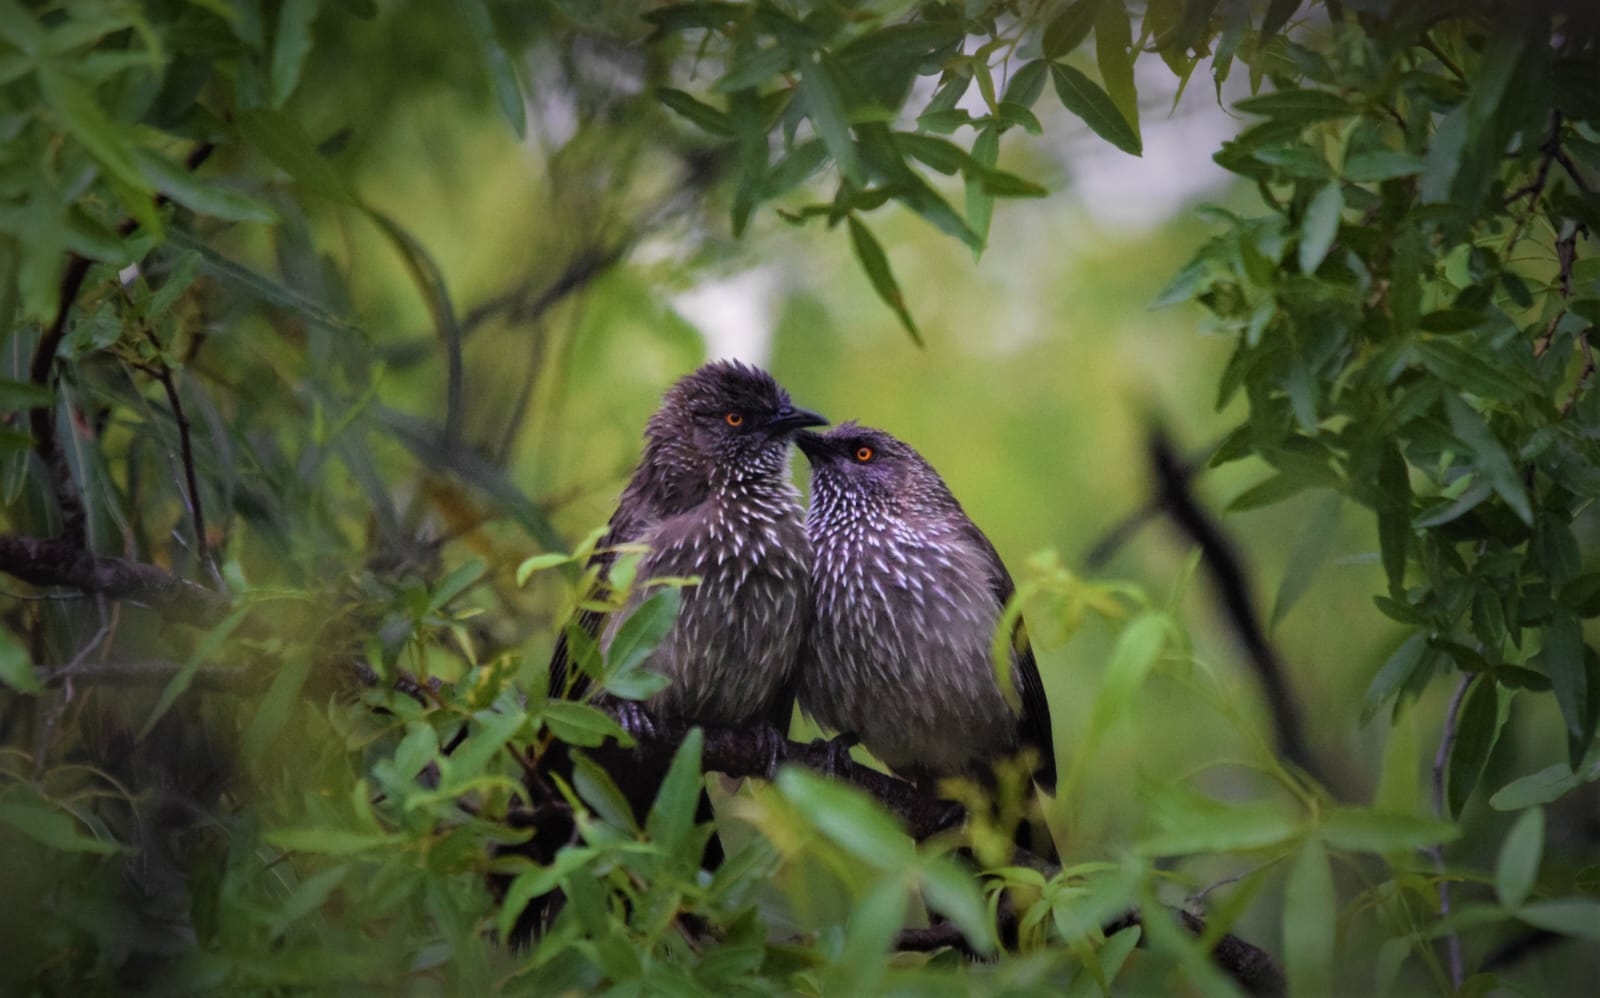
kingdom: Animalia
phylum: Chordata
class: Aves
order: Passeriformes
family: Leiothrichidae
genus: Turdoides
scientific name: Turdoides jardineii
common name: Arrow-marked babbler
